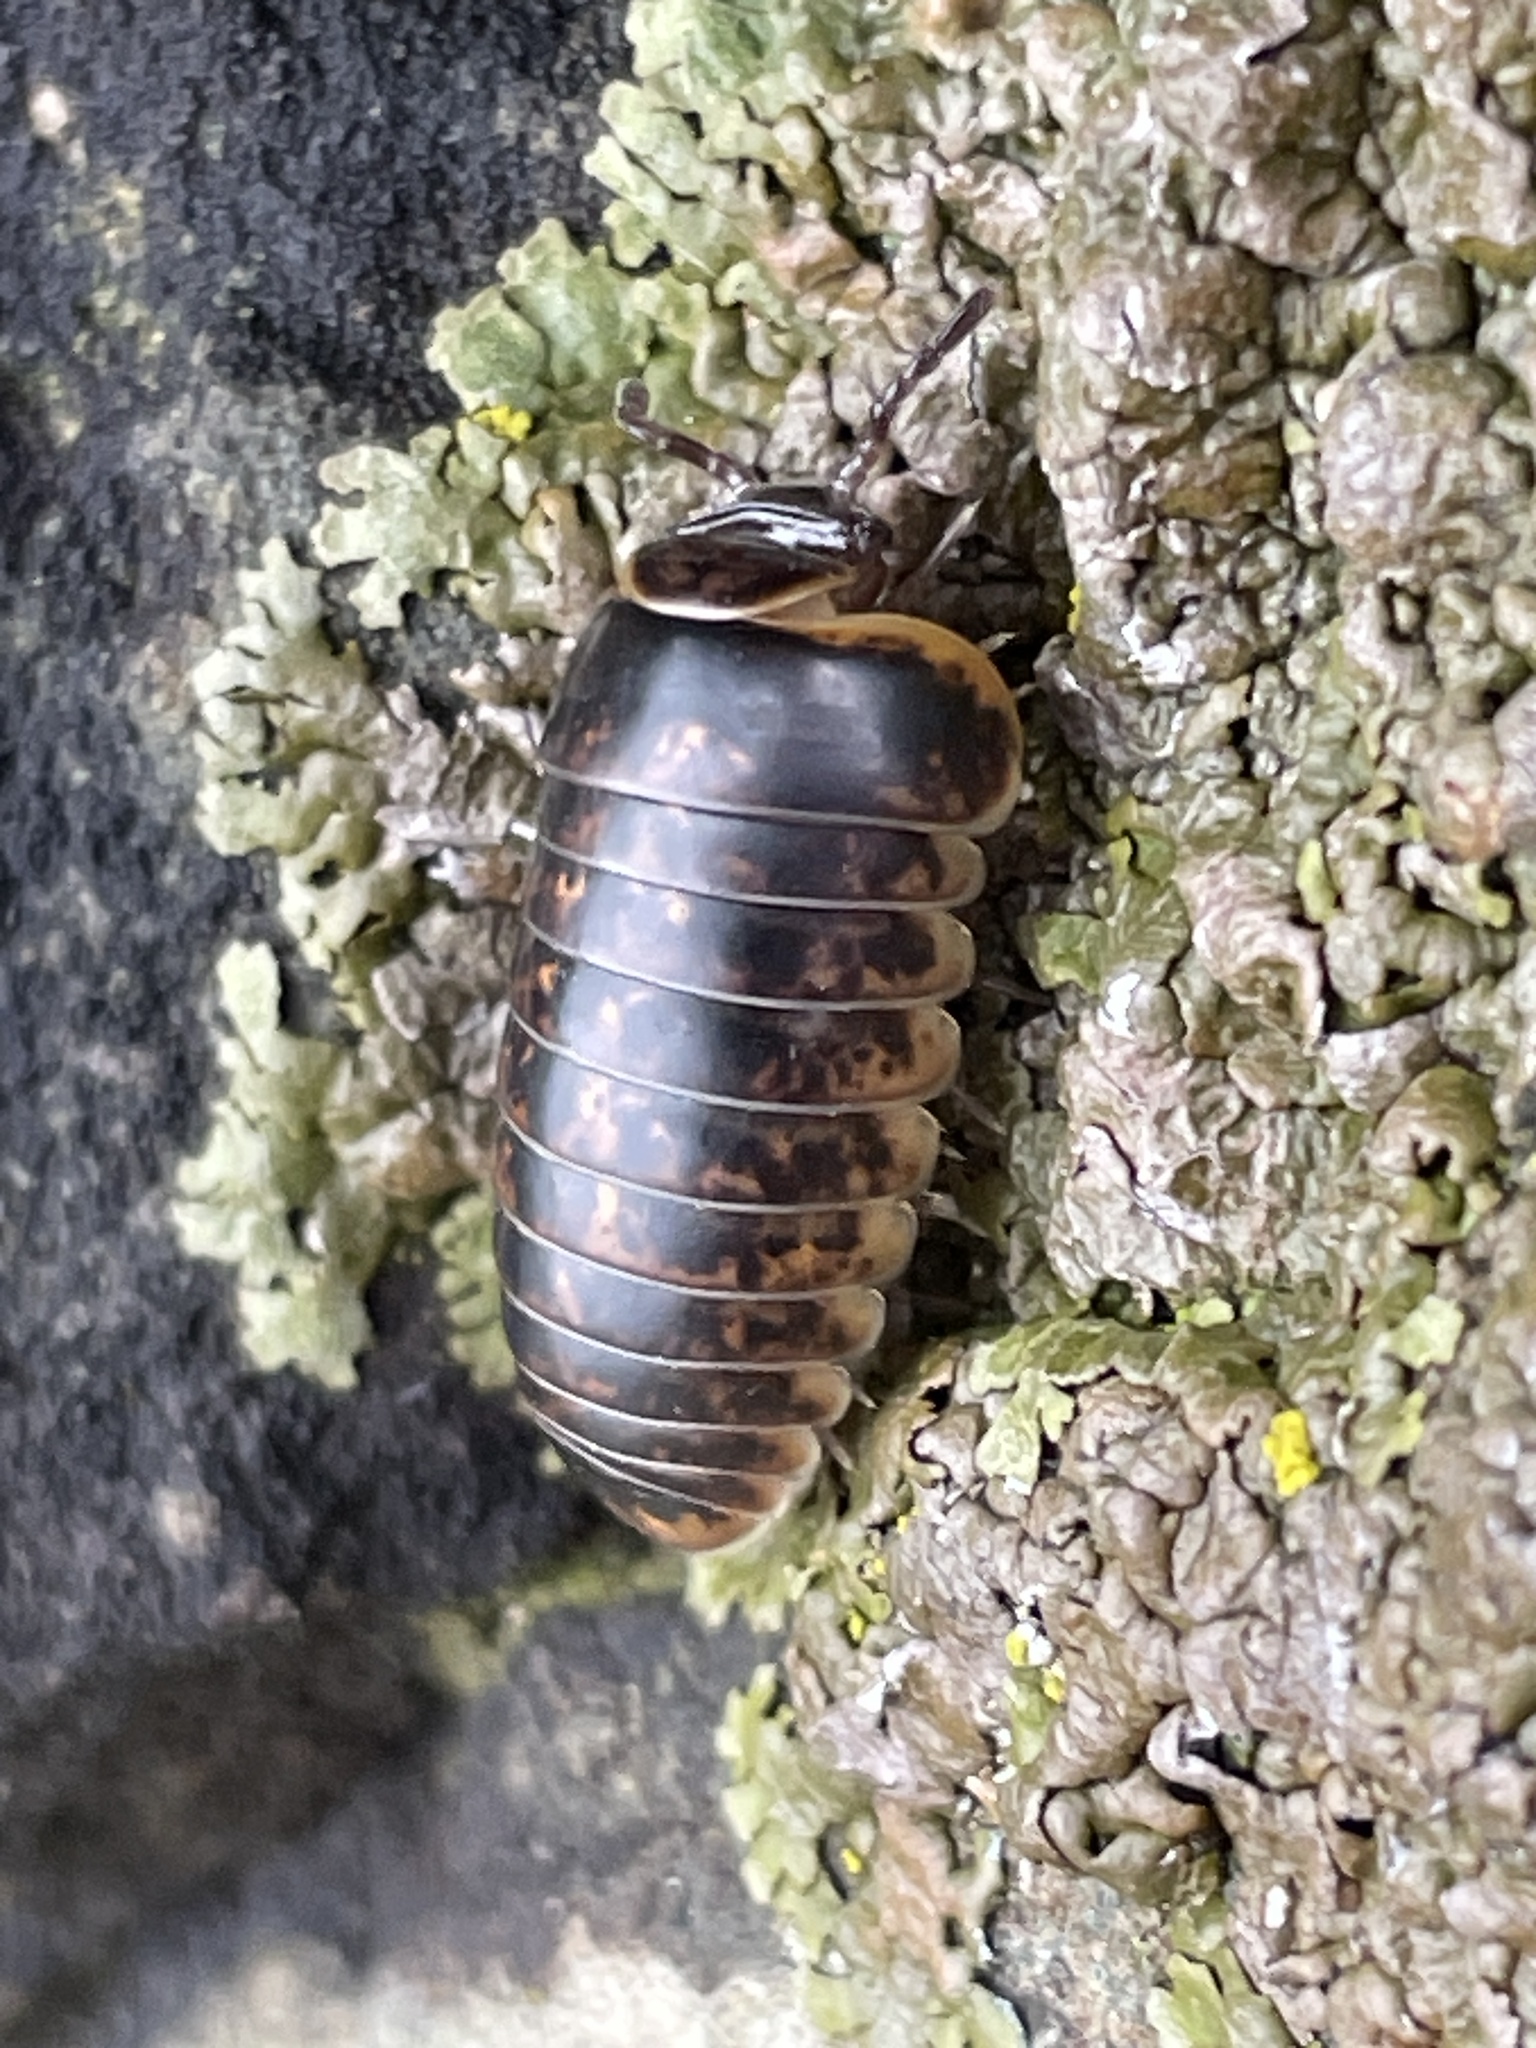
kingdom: Animalia
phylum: Arthropoda
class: Diplopoda
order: Glomerida
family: Glomeridae
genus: Glomeris
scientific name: Glomeris klugii
